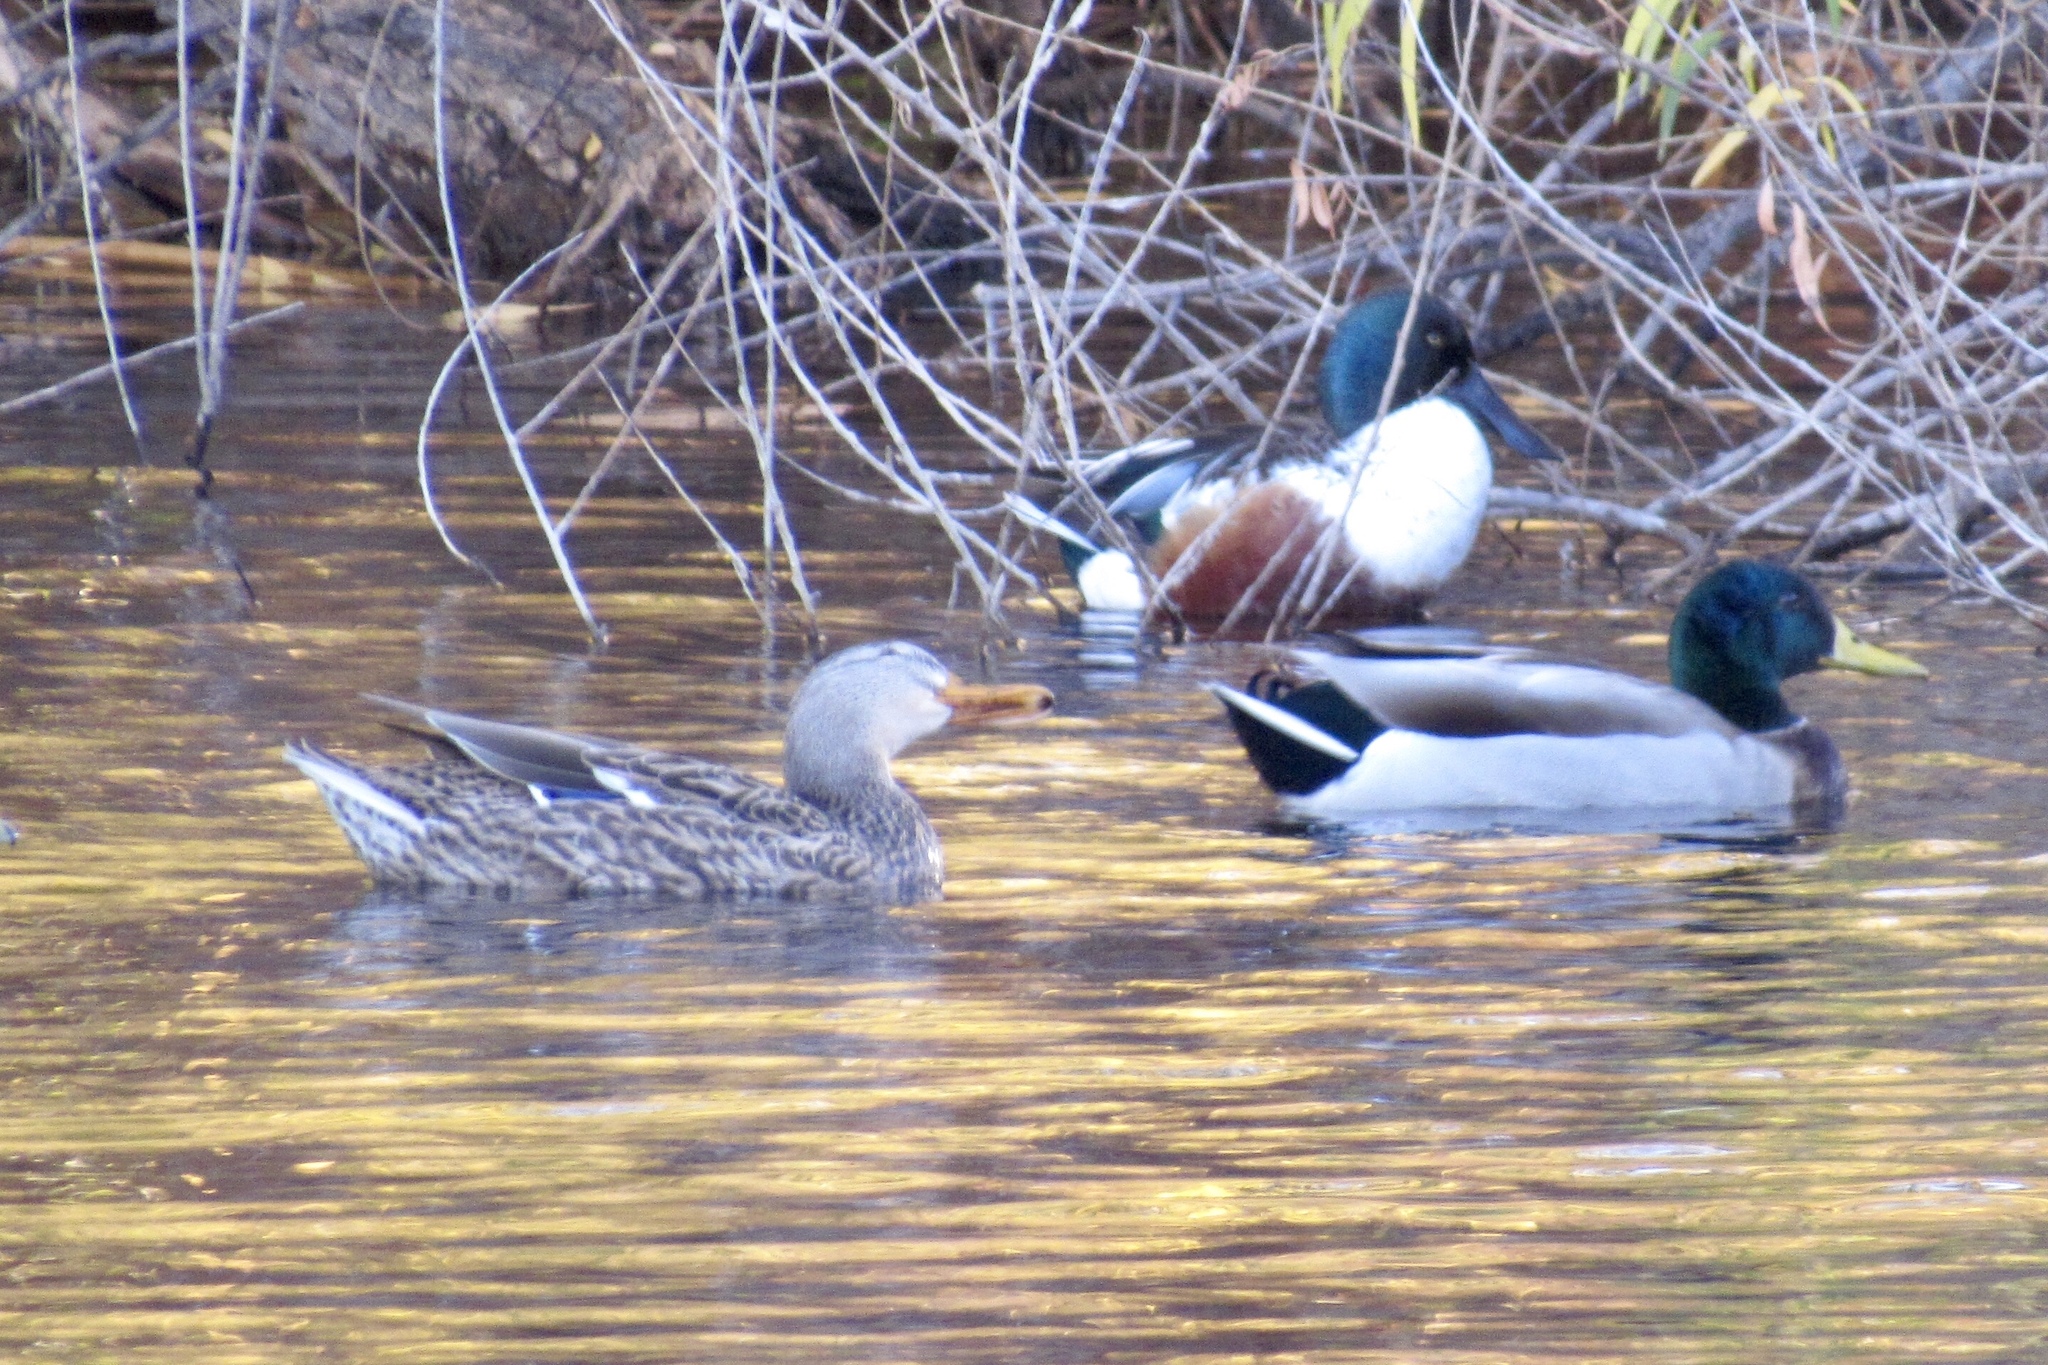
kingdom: Animalia
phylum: Chordata
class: Aves
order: Anseriformes
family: Anatidae
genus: Anas
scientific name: Anas platyrhynchos
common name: Mallard
